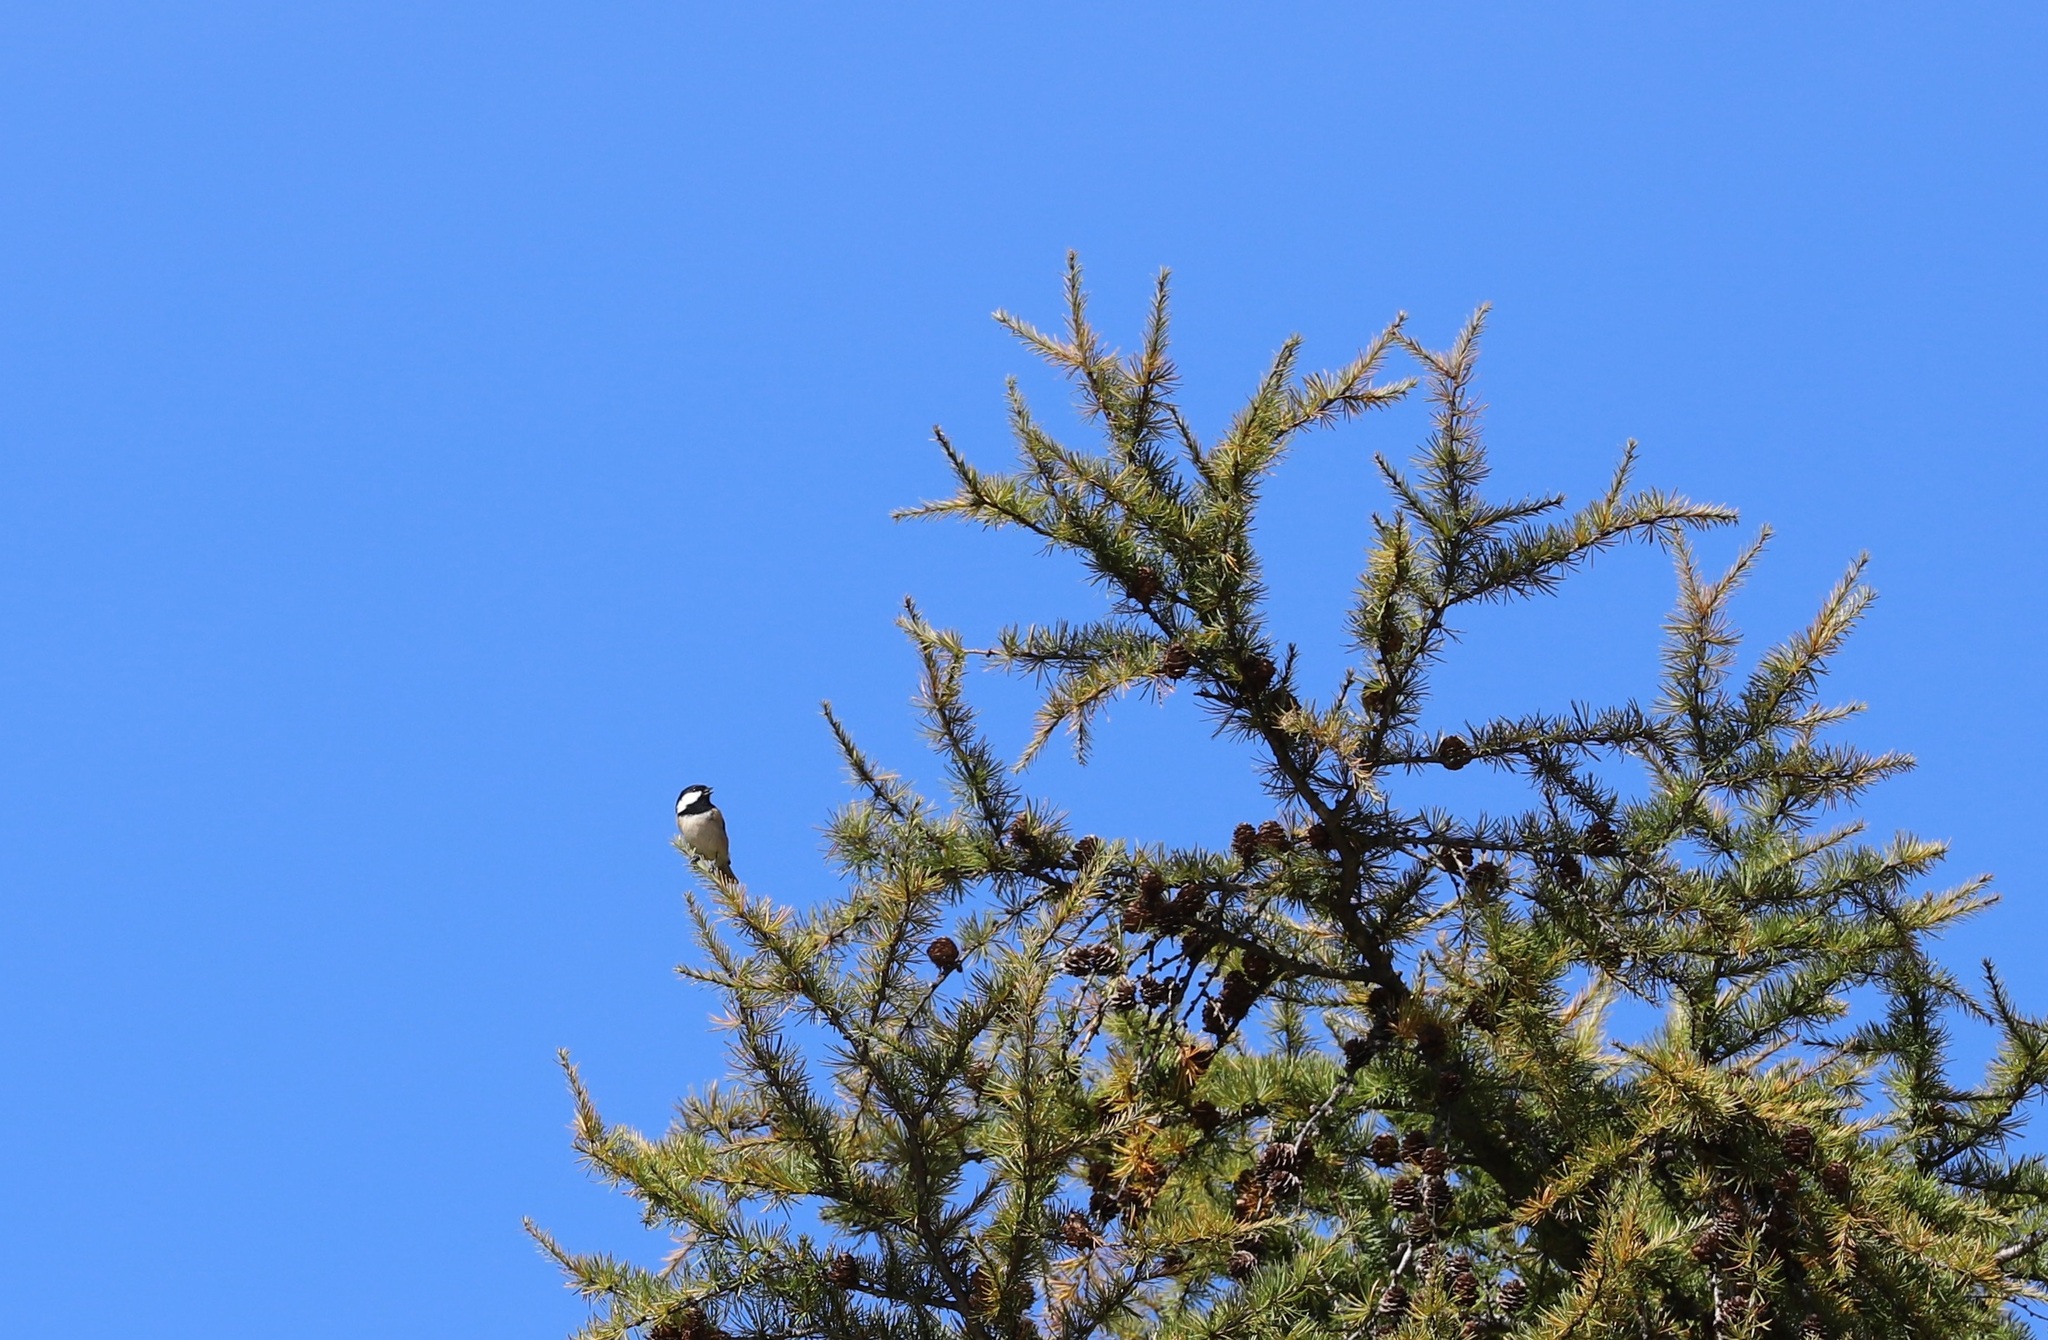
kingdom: Animalia
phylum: Chordata
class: Aves
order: Passeriformes
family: Paridae
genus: Parus
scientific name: Parus minor
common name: Japanese tit
